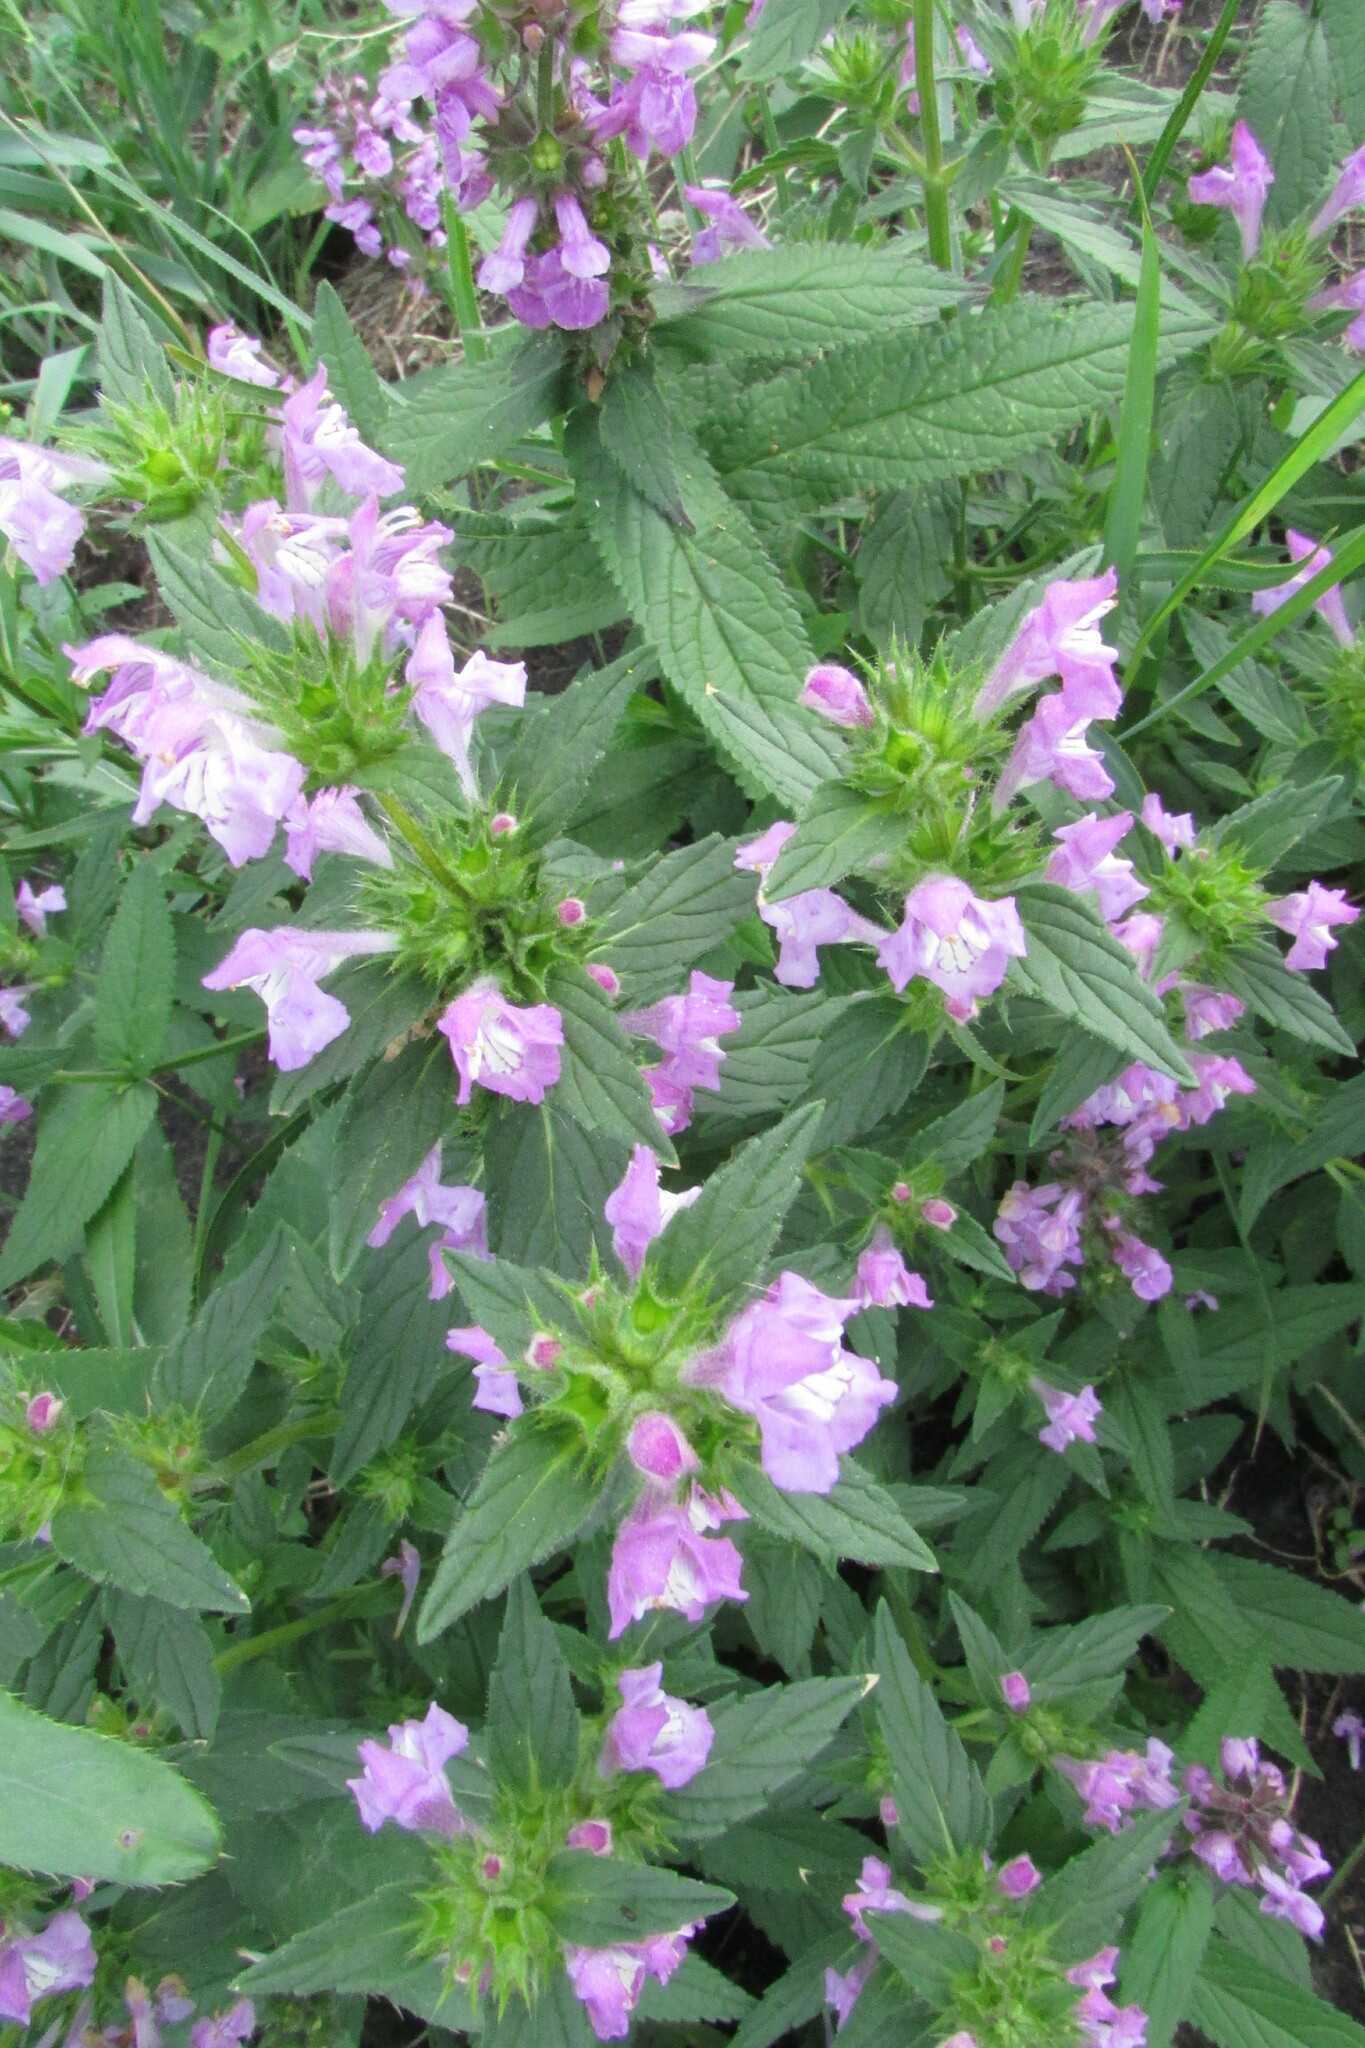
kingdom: Plantae
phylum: Tracheophyta
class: Magnoliopsida
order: Lamiales
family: Lamiaceae
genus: Galeopsis
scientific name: Galeopsis ladanum
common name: Broad-leaved hemp-nettle
